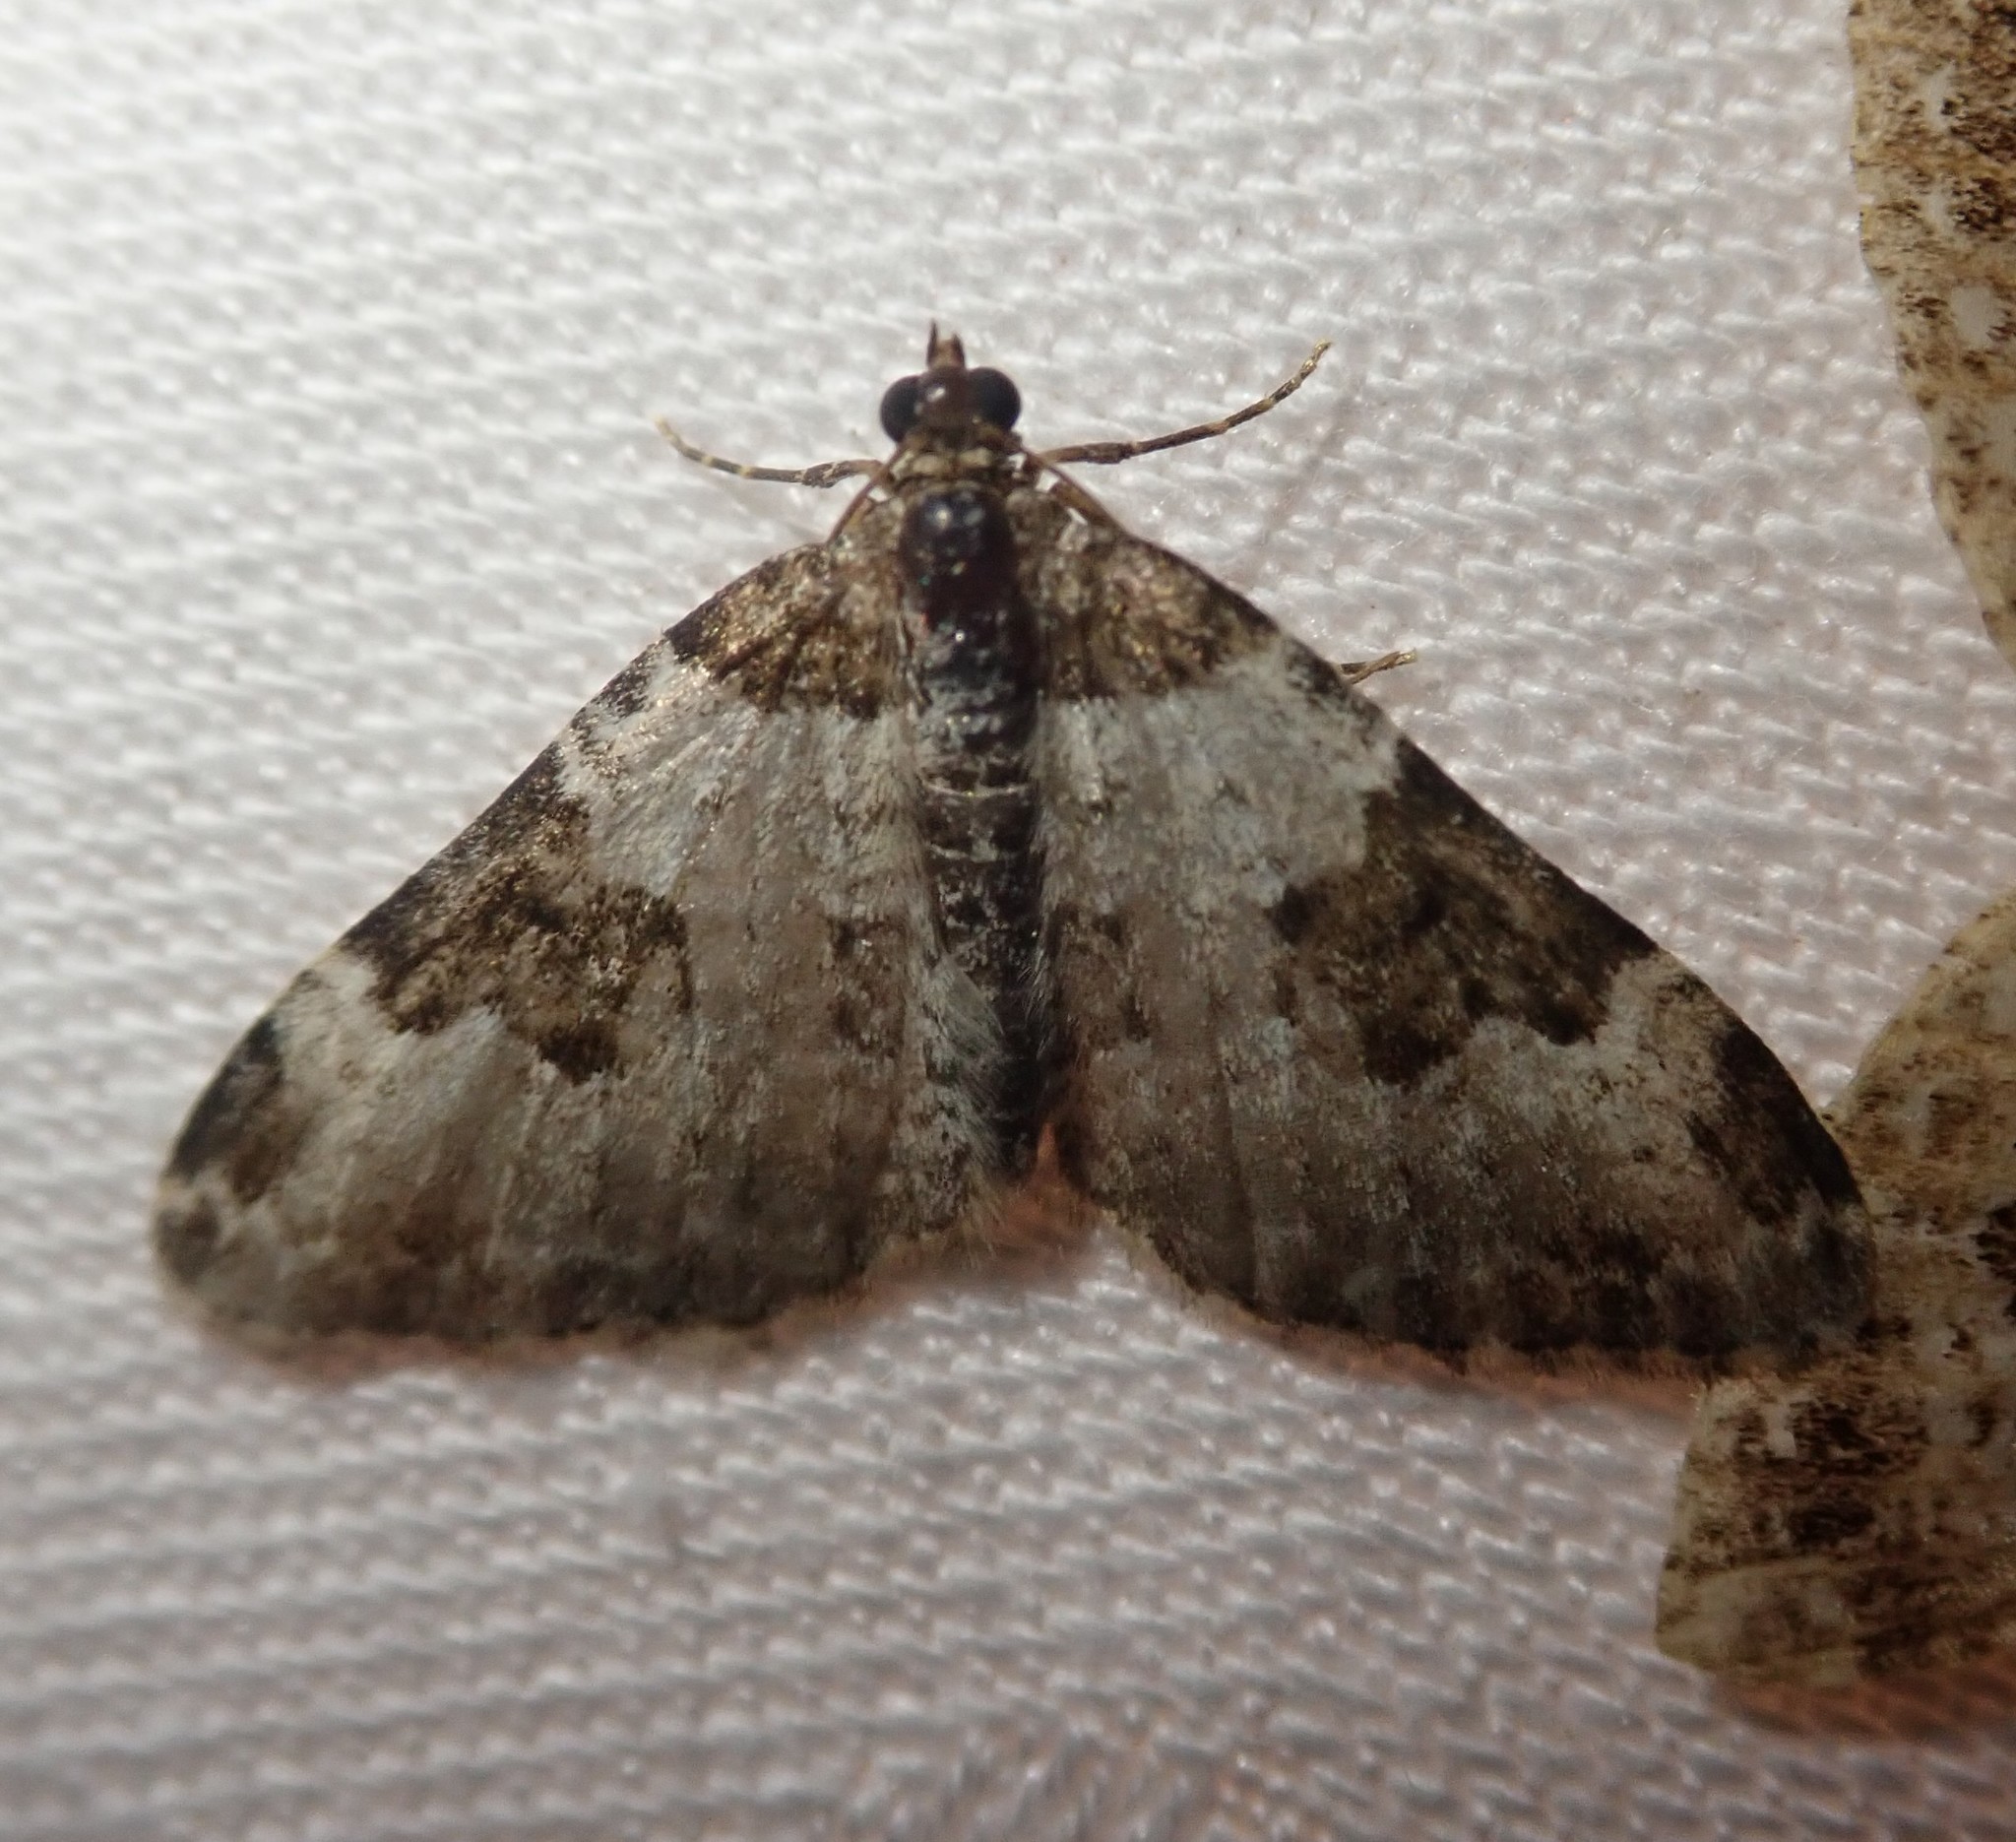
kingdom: Animalia
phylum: Arthropoda
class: Insecta
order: Lepidoptera
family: Geometridae
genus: Xanthorhoe
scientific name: Xanthorhoe fluctuata
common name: Garden carpet
